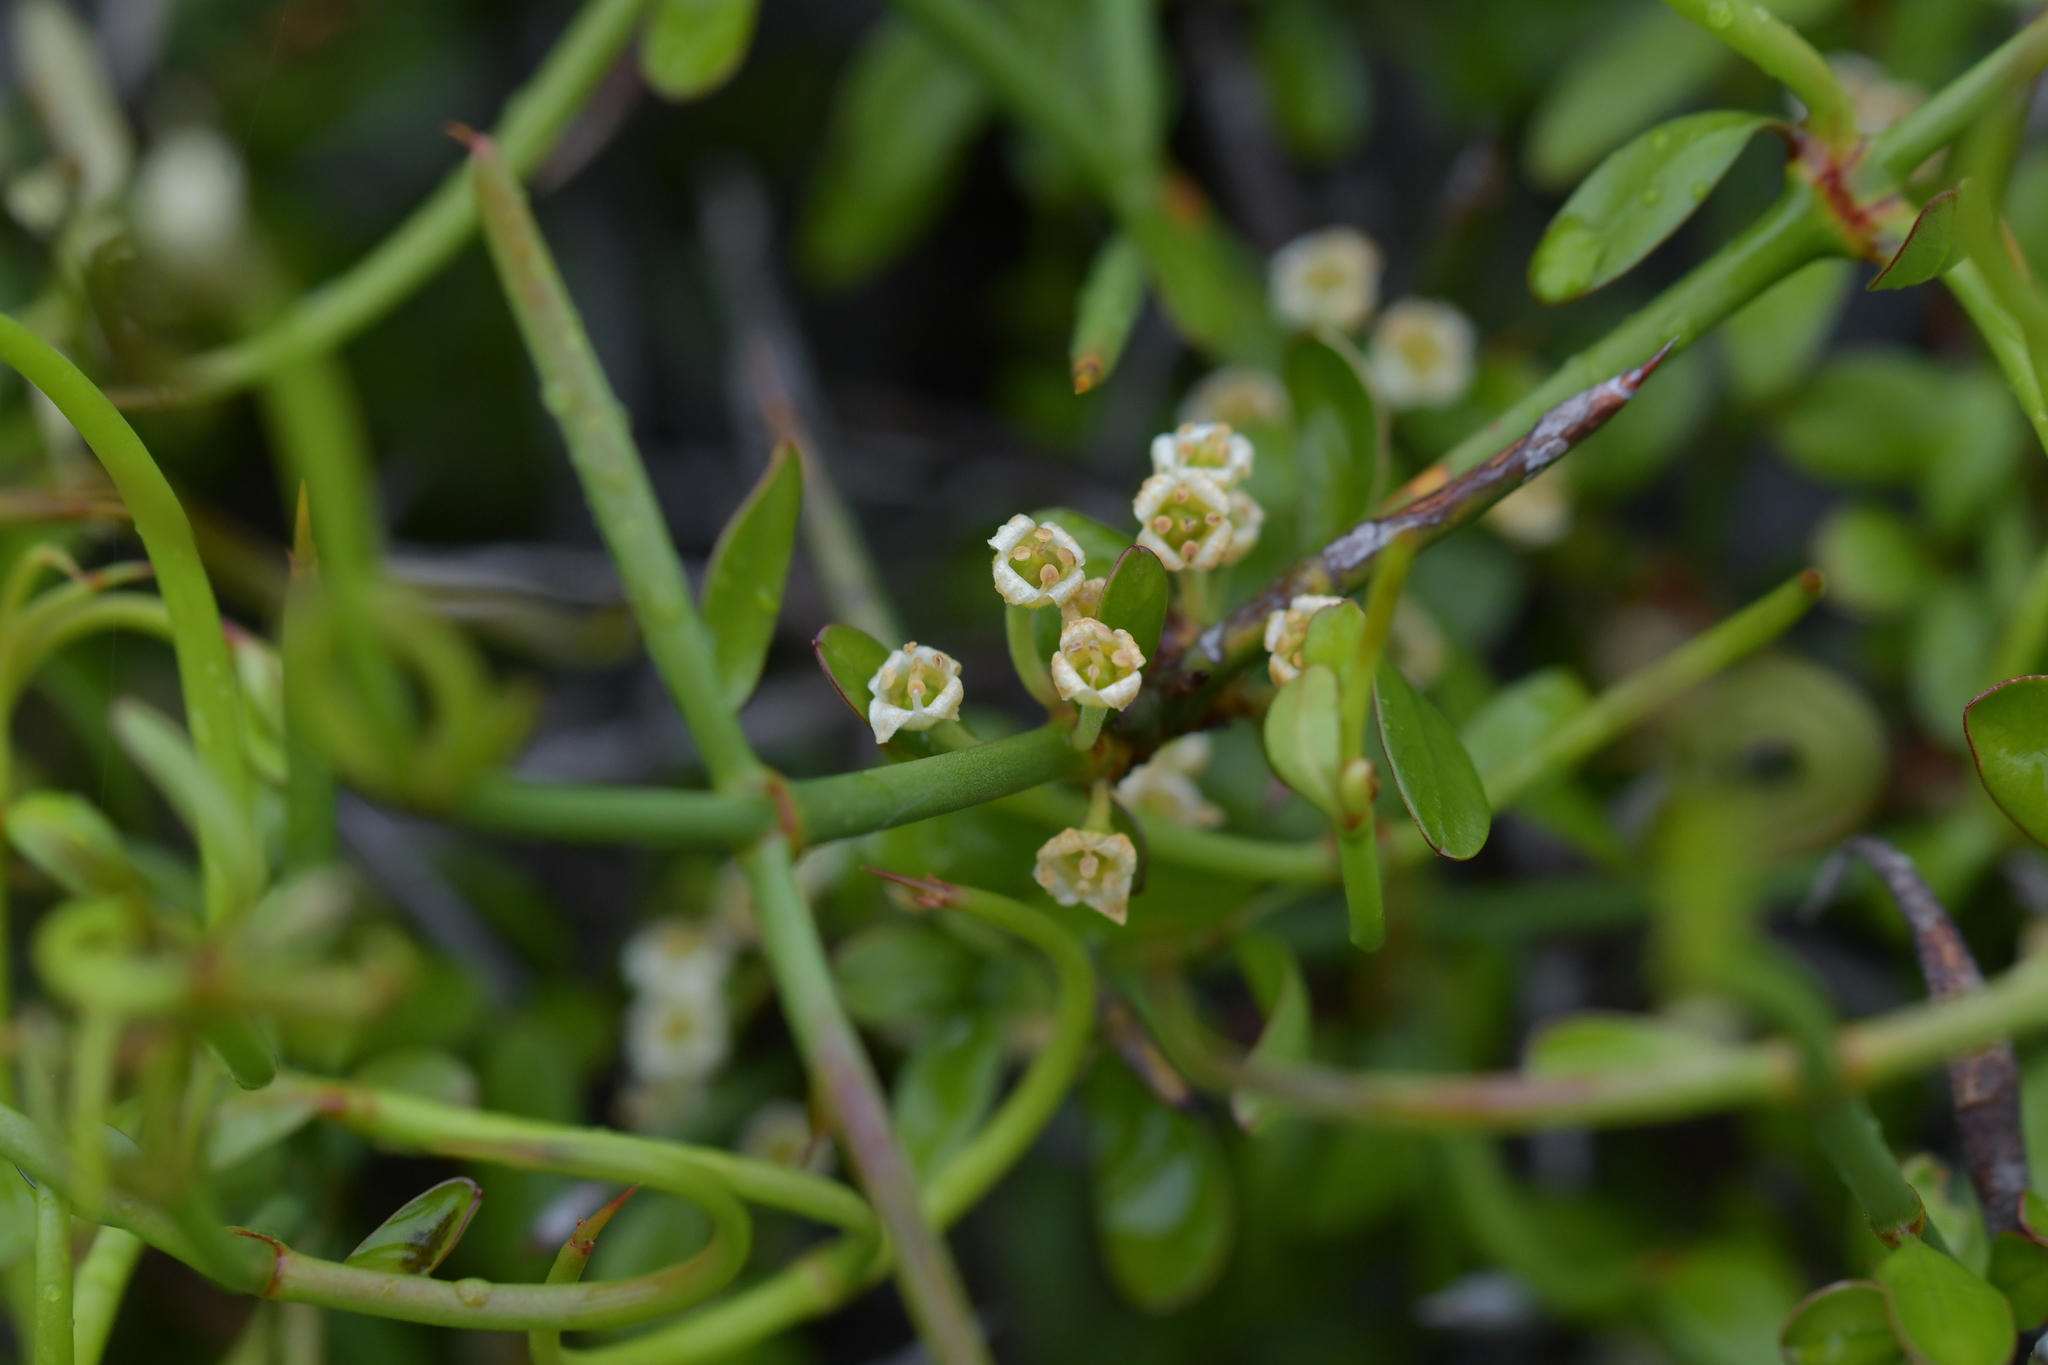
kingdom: Plantae
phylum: Tracheophyta
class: Magnoliopsida
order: Rosales
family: Rhamnaceae
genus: Discaria
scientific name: Discaria toumatou
